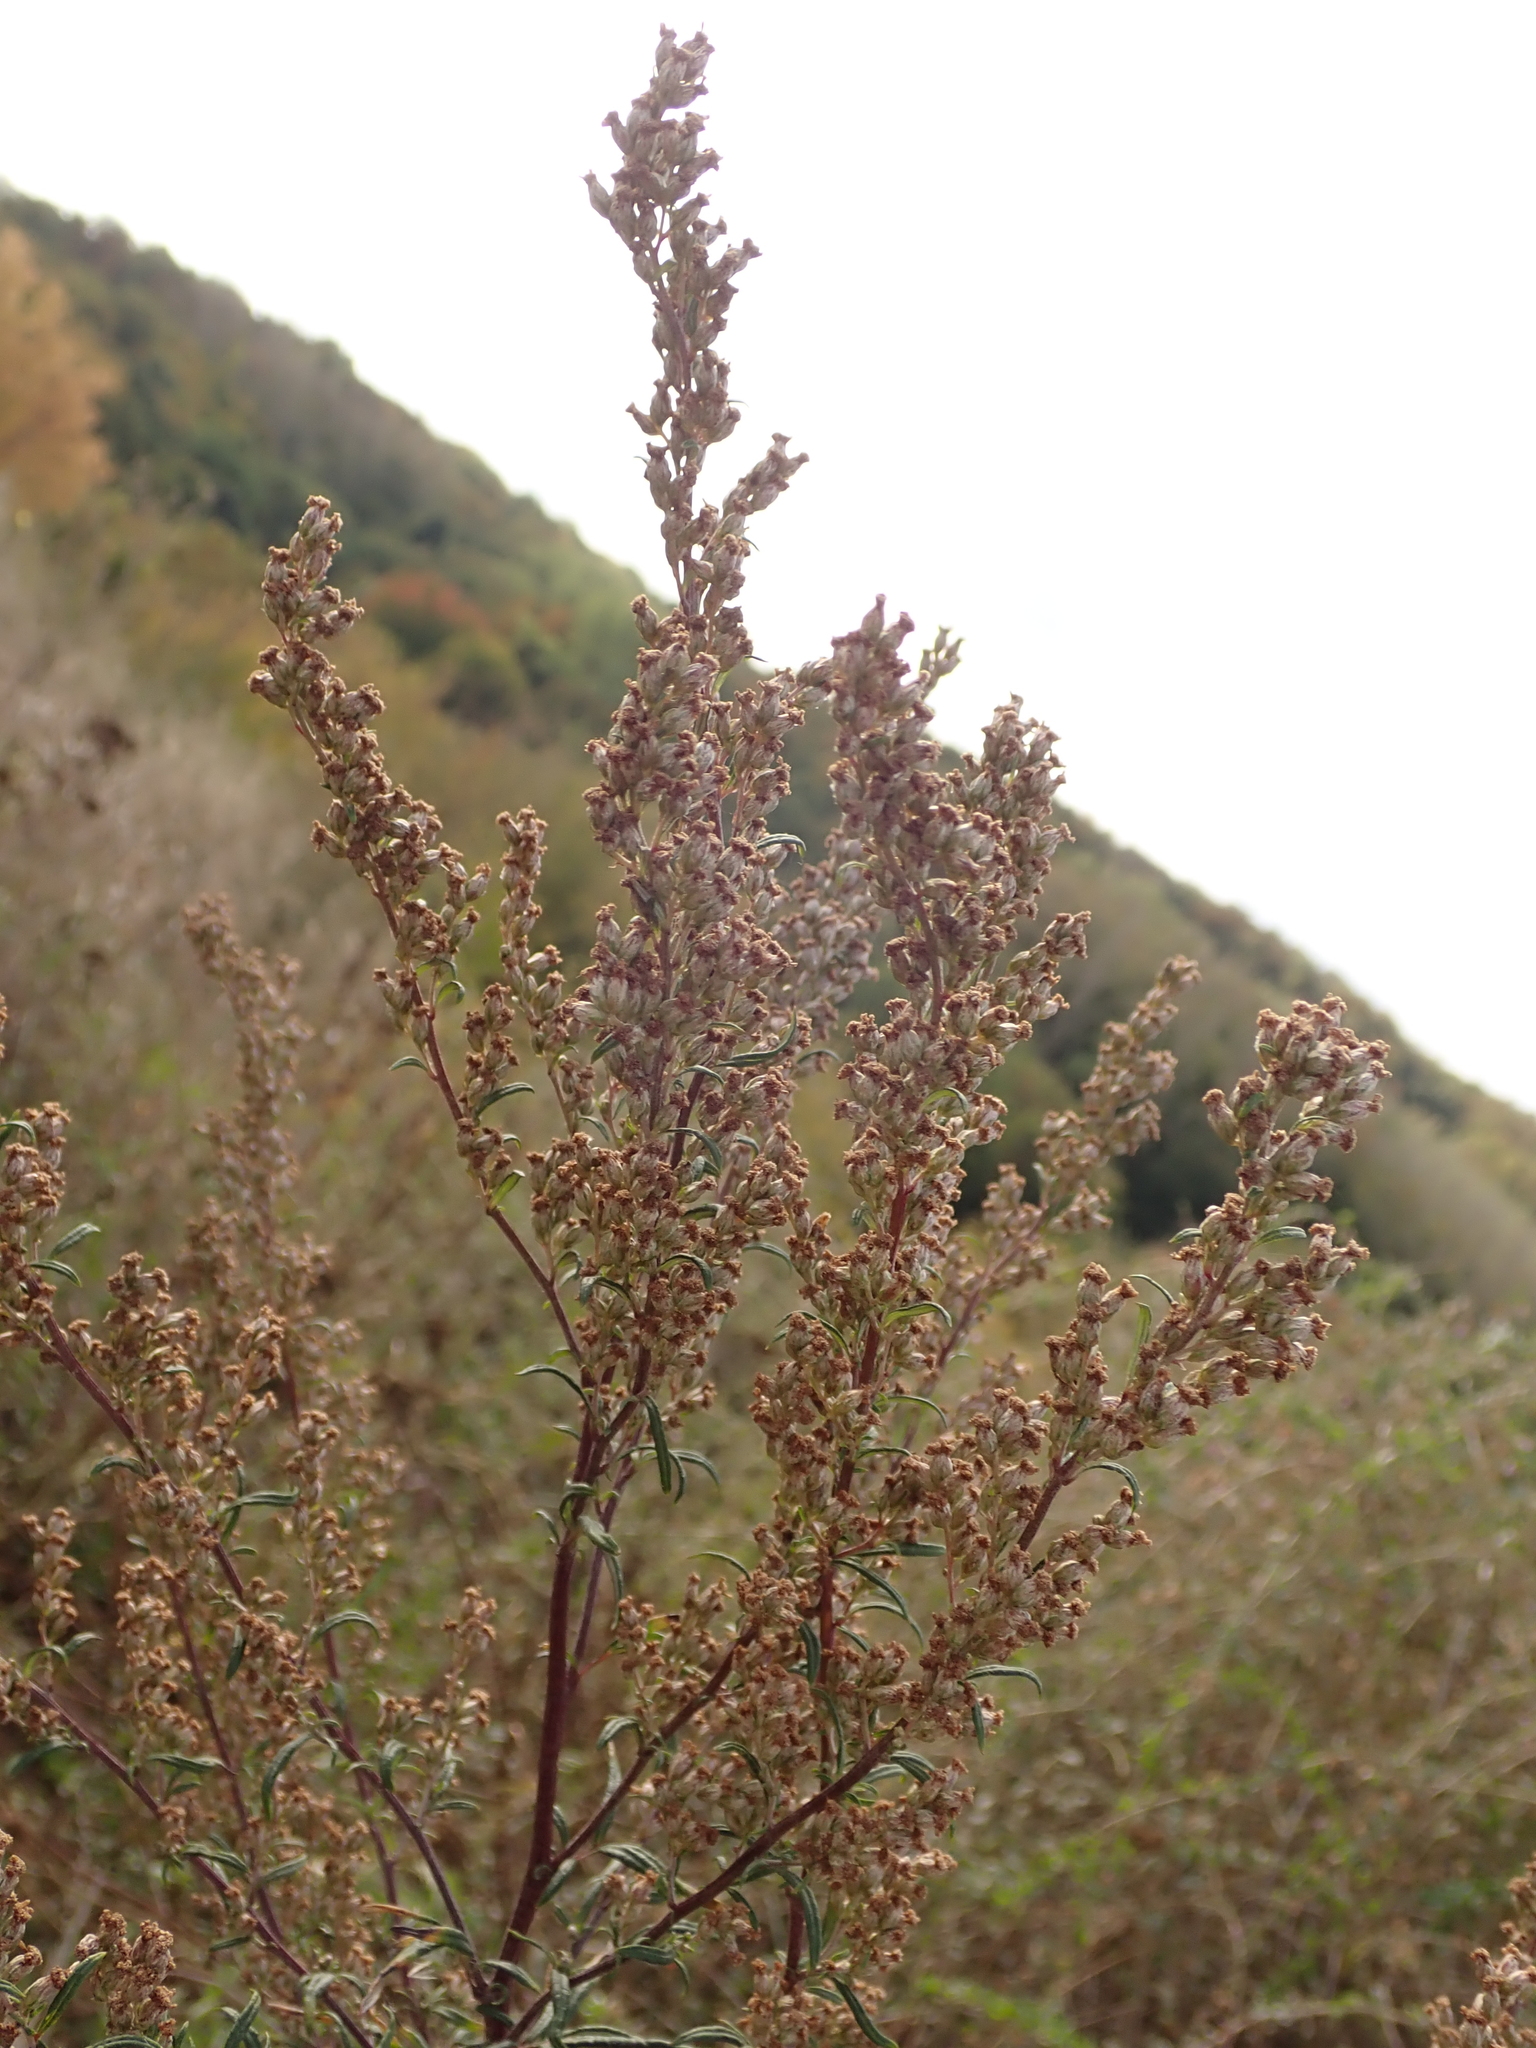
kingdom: Plantae
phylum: Tracheophyta
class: Magnoliopsida
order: Asterales
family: Asteraceae
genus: Artemisia
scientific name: Artemisia vulgaris
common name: Mugwort
